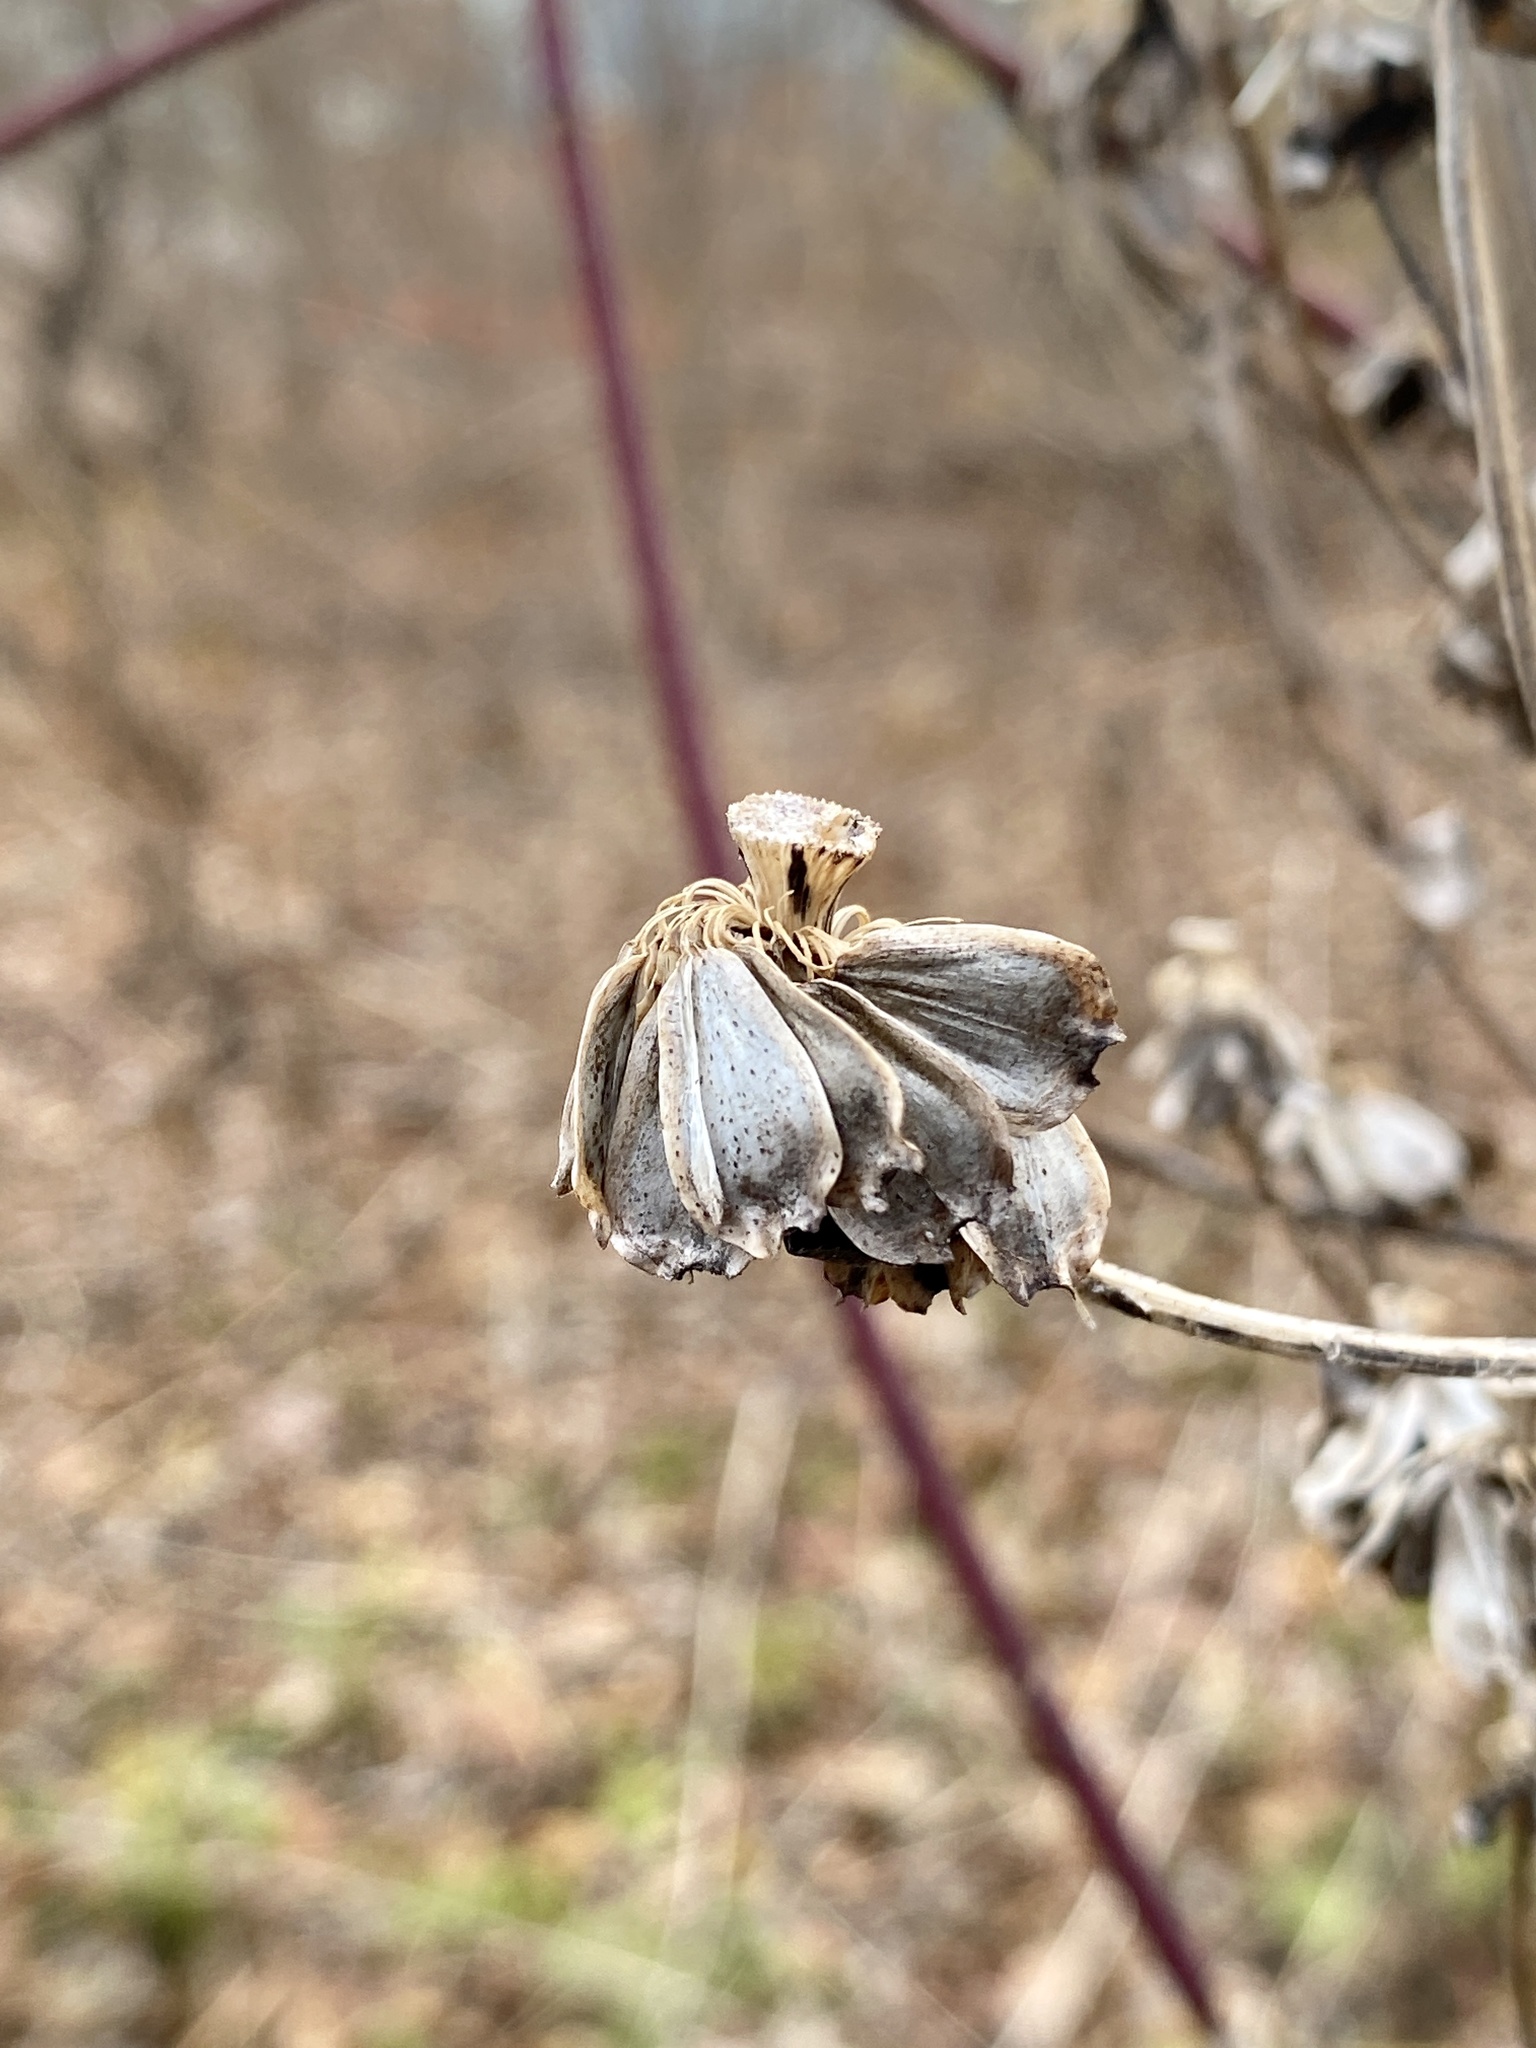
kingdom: Plantae
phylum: Tracheophyta
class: Magnoliopsida
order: Asterales
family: Asteraceae
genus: Silphium
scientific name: Silphium perfoliatum
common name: Cup-plant
